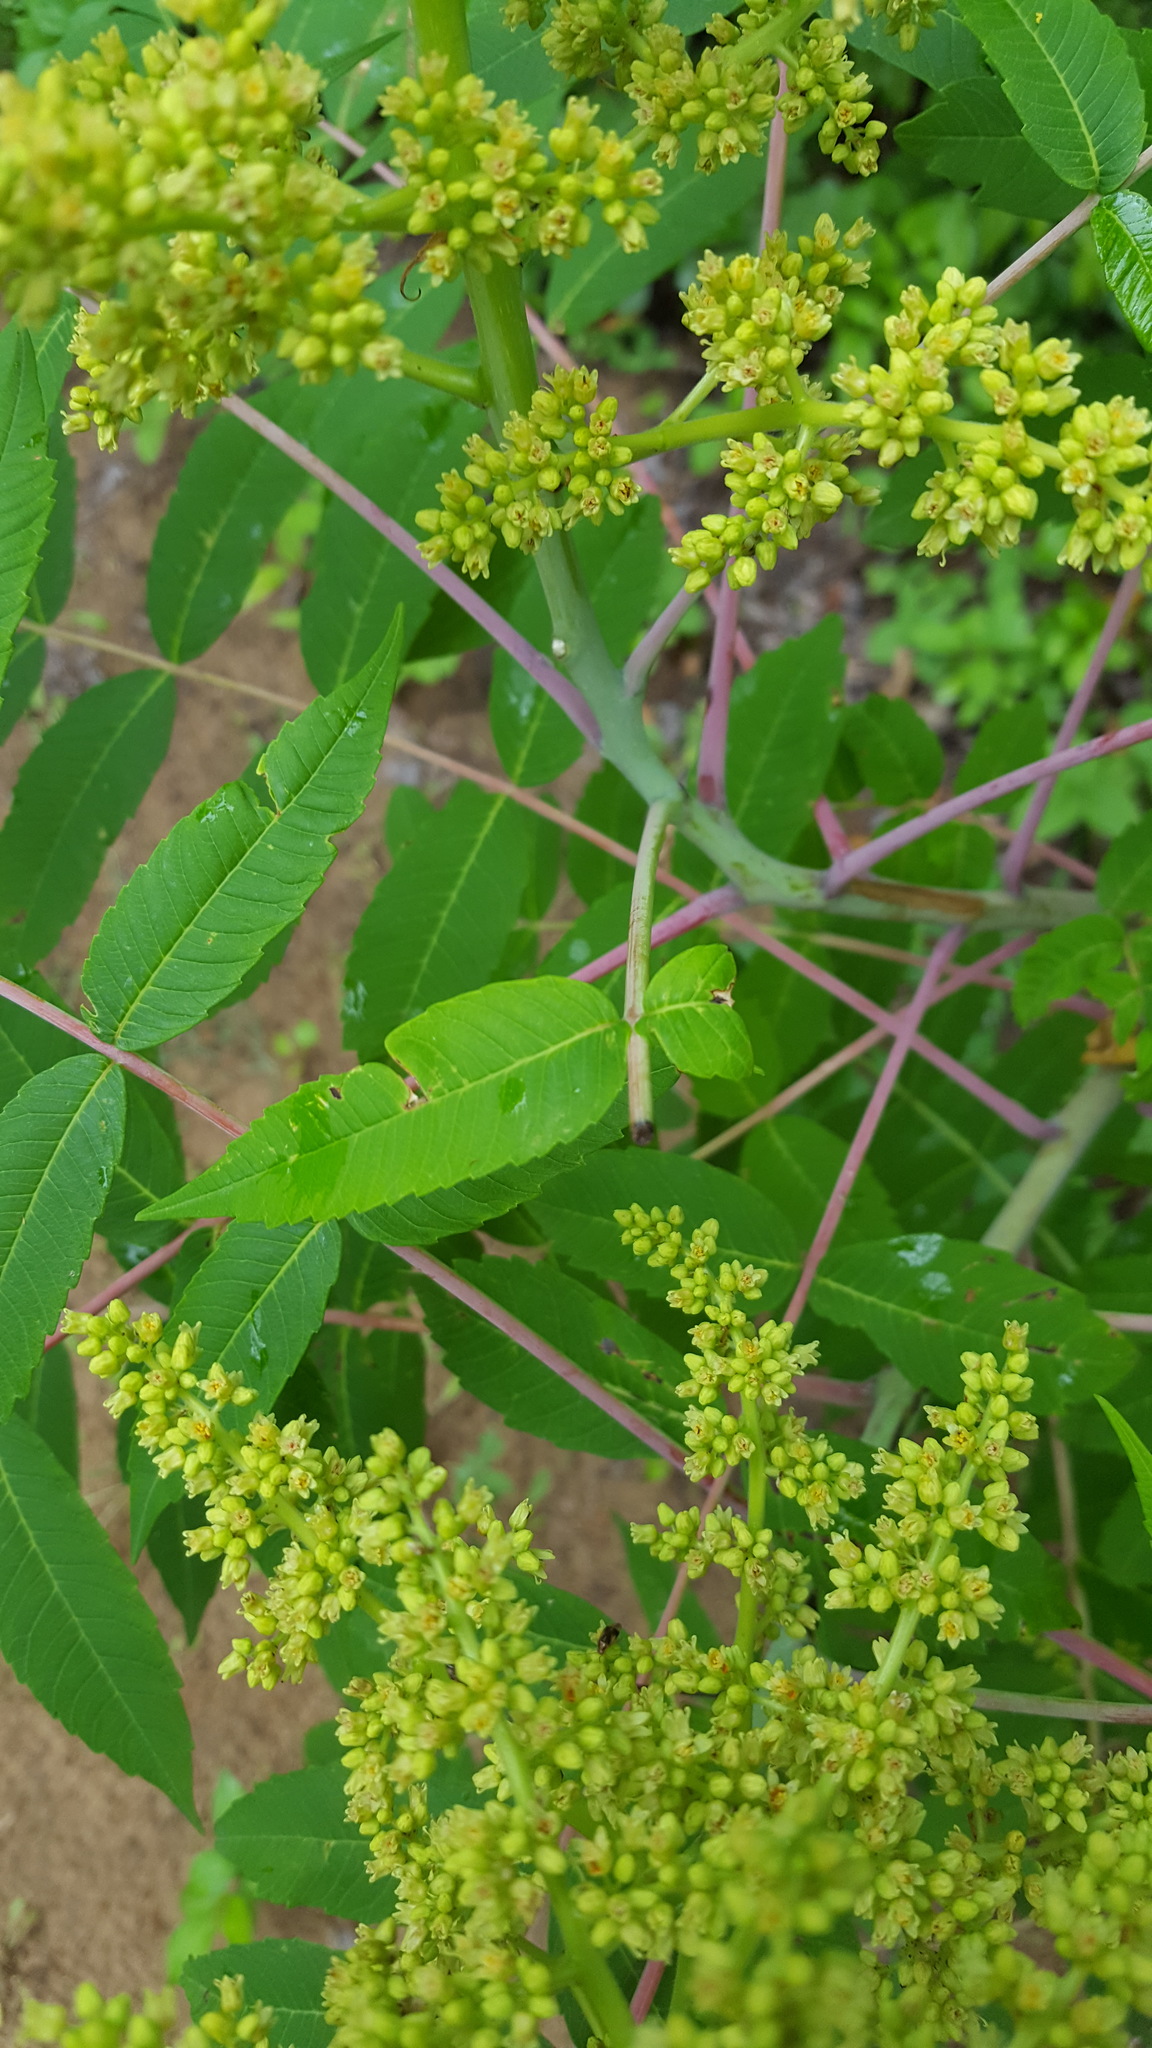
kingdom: Plantae
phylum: Tracheophyta
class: Magnoliopsida
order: Sapindales
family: Anacardiaceae
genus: Rhus
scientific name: Rhus glabra
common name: Scarlet sumac
